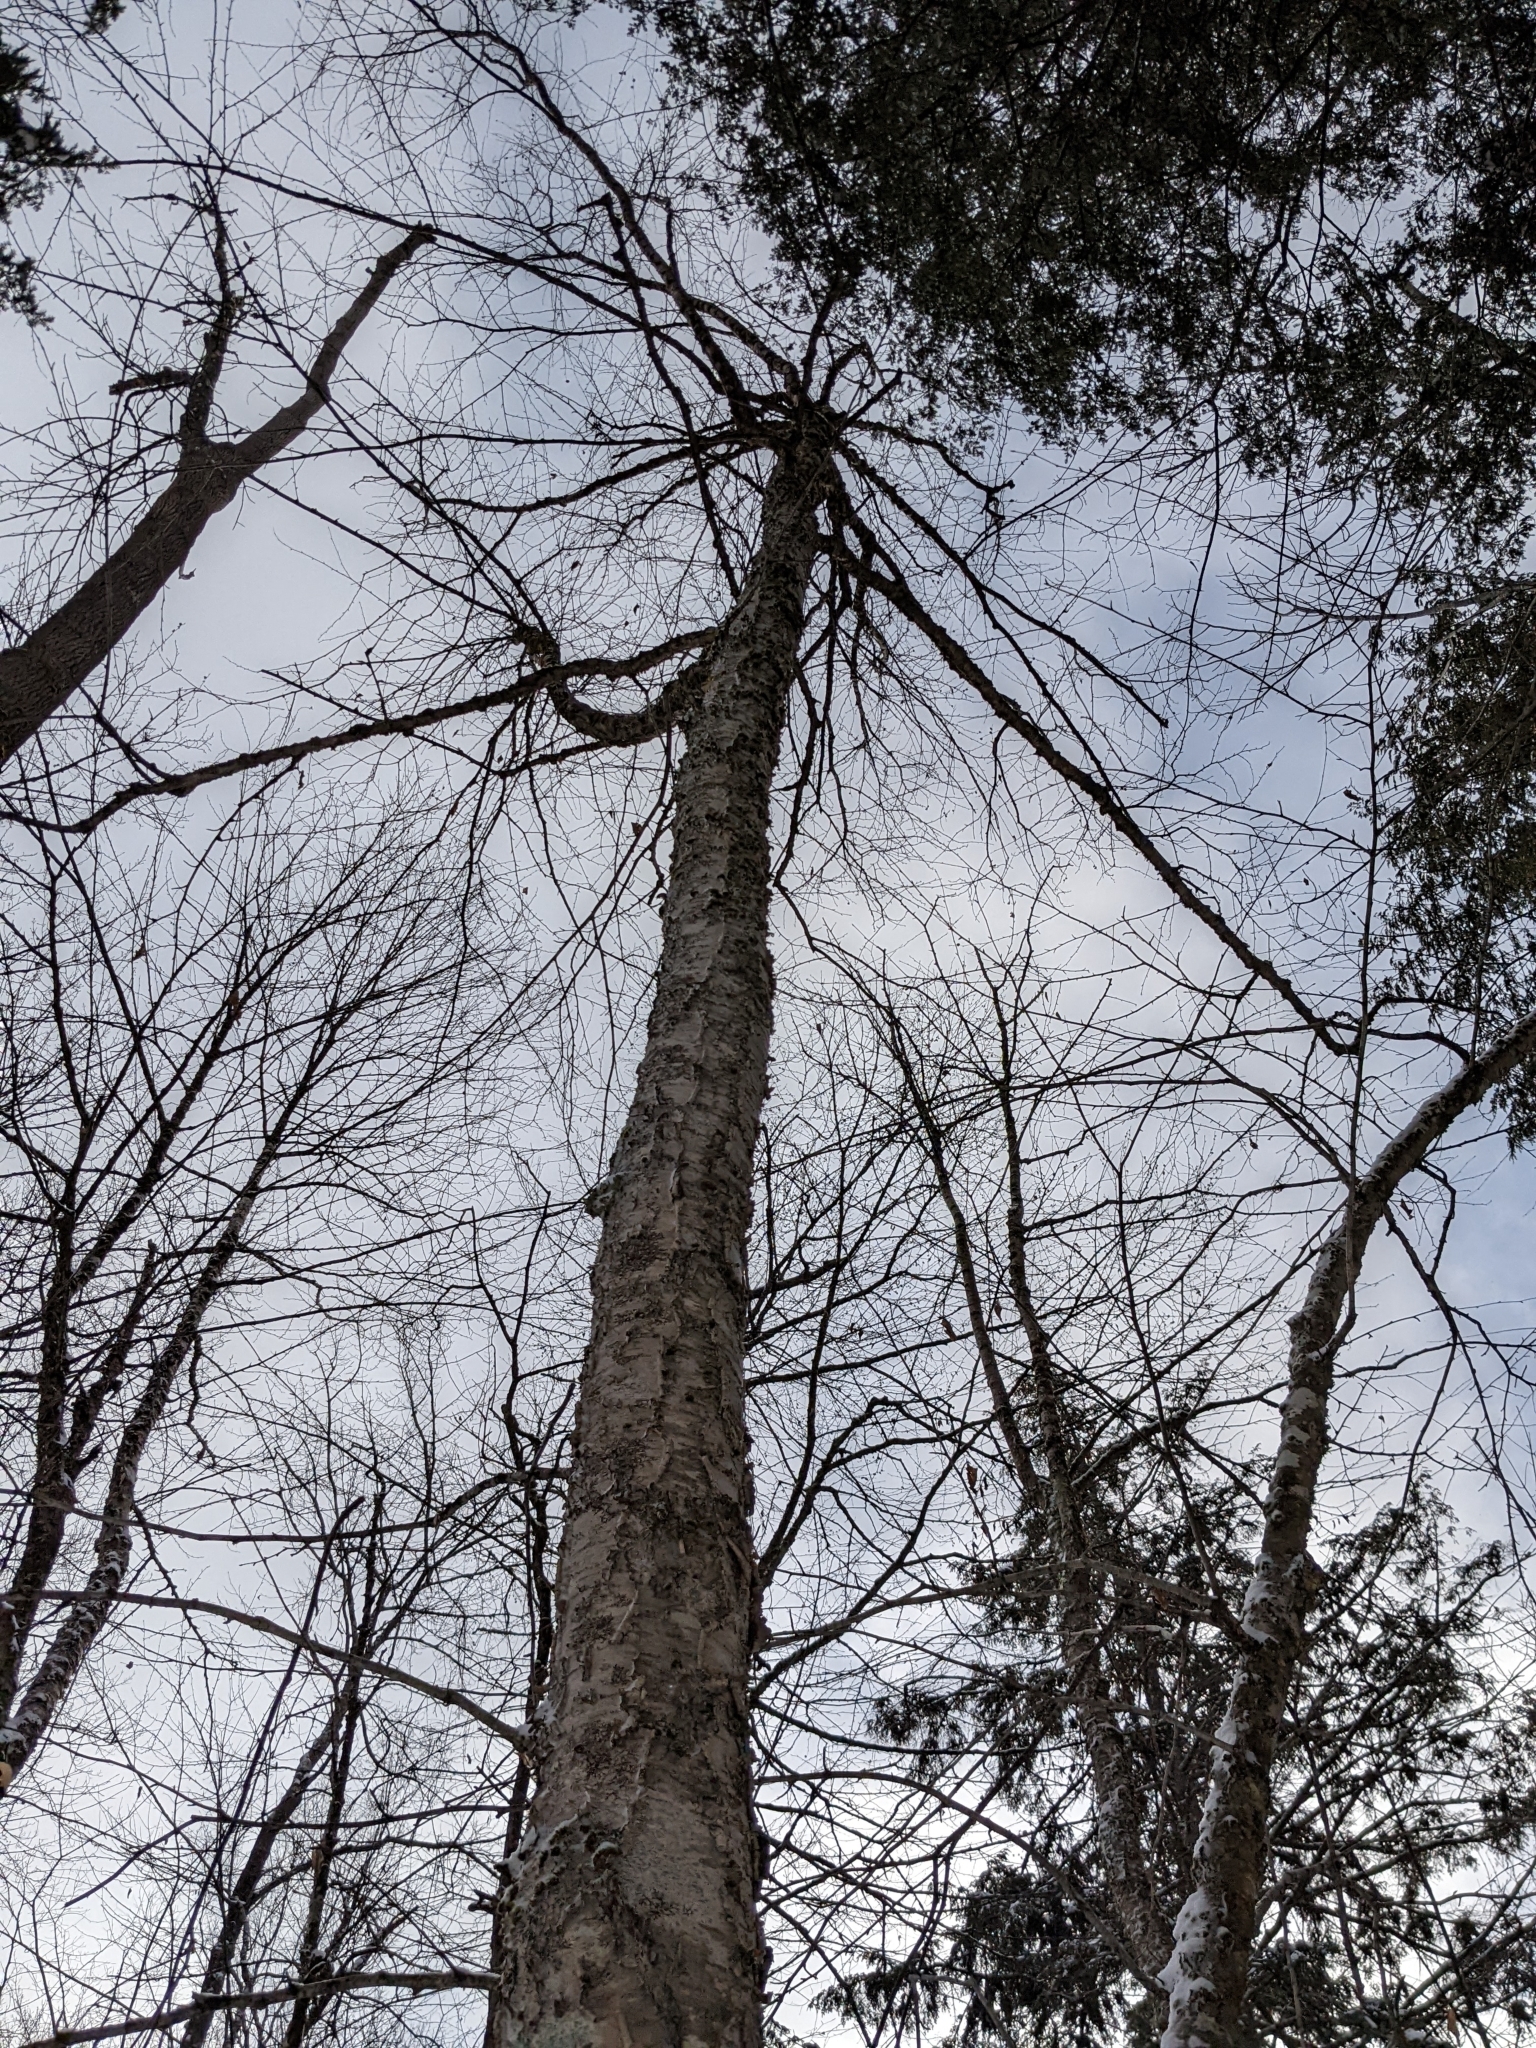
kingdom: Plantae
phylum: Tracheophyta
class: Magnoliopsida
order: Fagales
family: Betulaceae
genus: Betula
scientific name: Betula alleghaniensis
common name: Yellow birch
